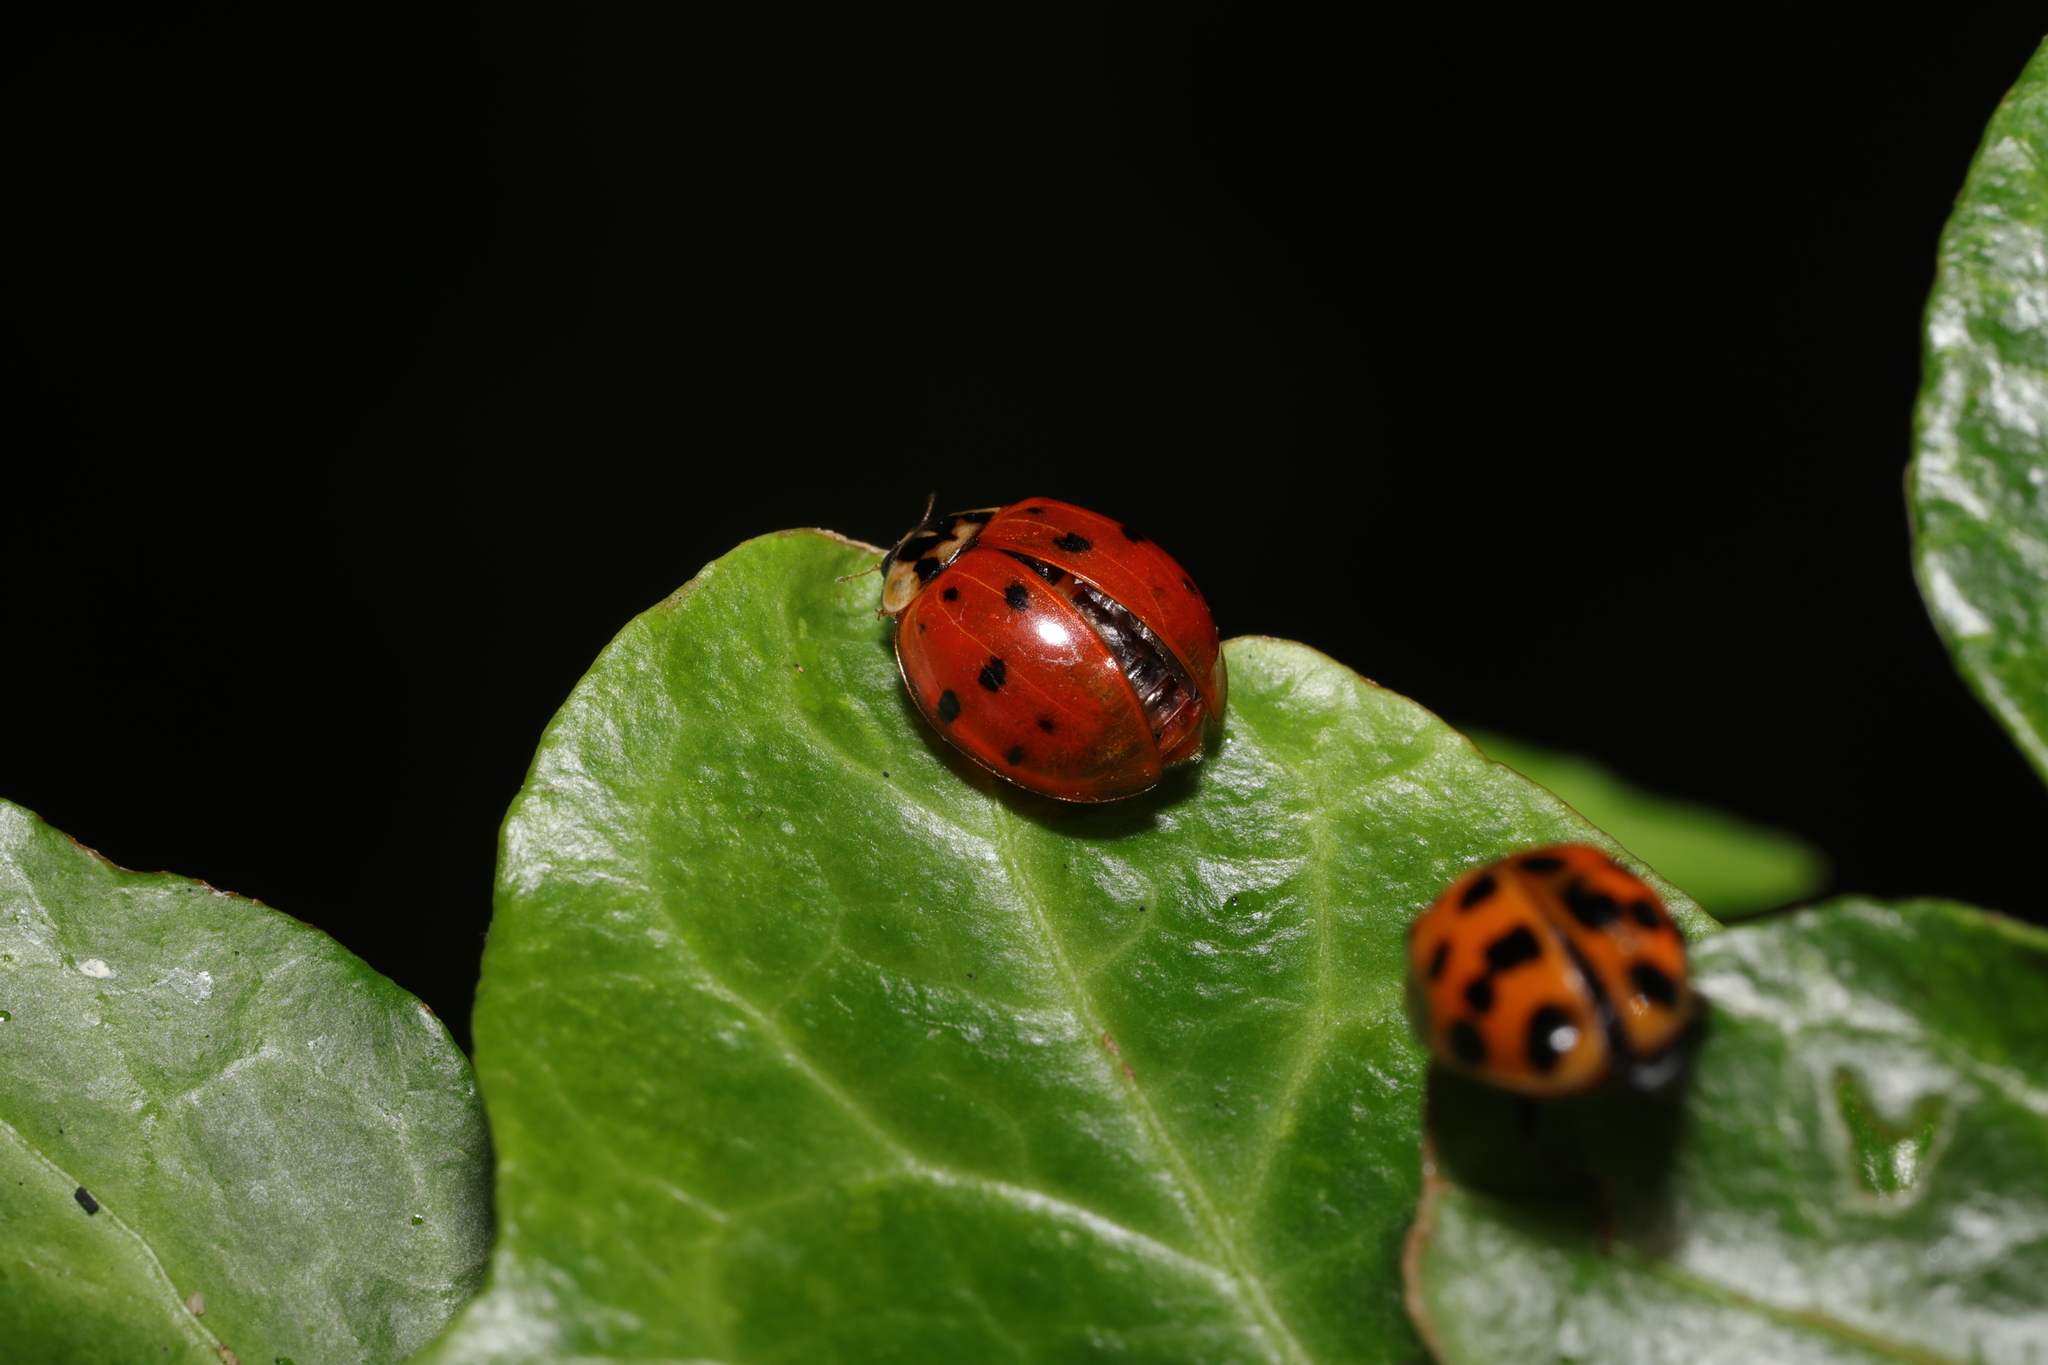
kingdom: Animalia
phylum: Arthropoda
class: Insecta
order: Coleoptera
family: Coccinellidae
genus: Harmonia
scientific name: Harmonia axyridis
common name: Harlequin ladybird
